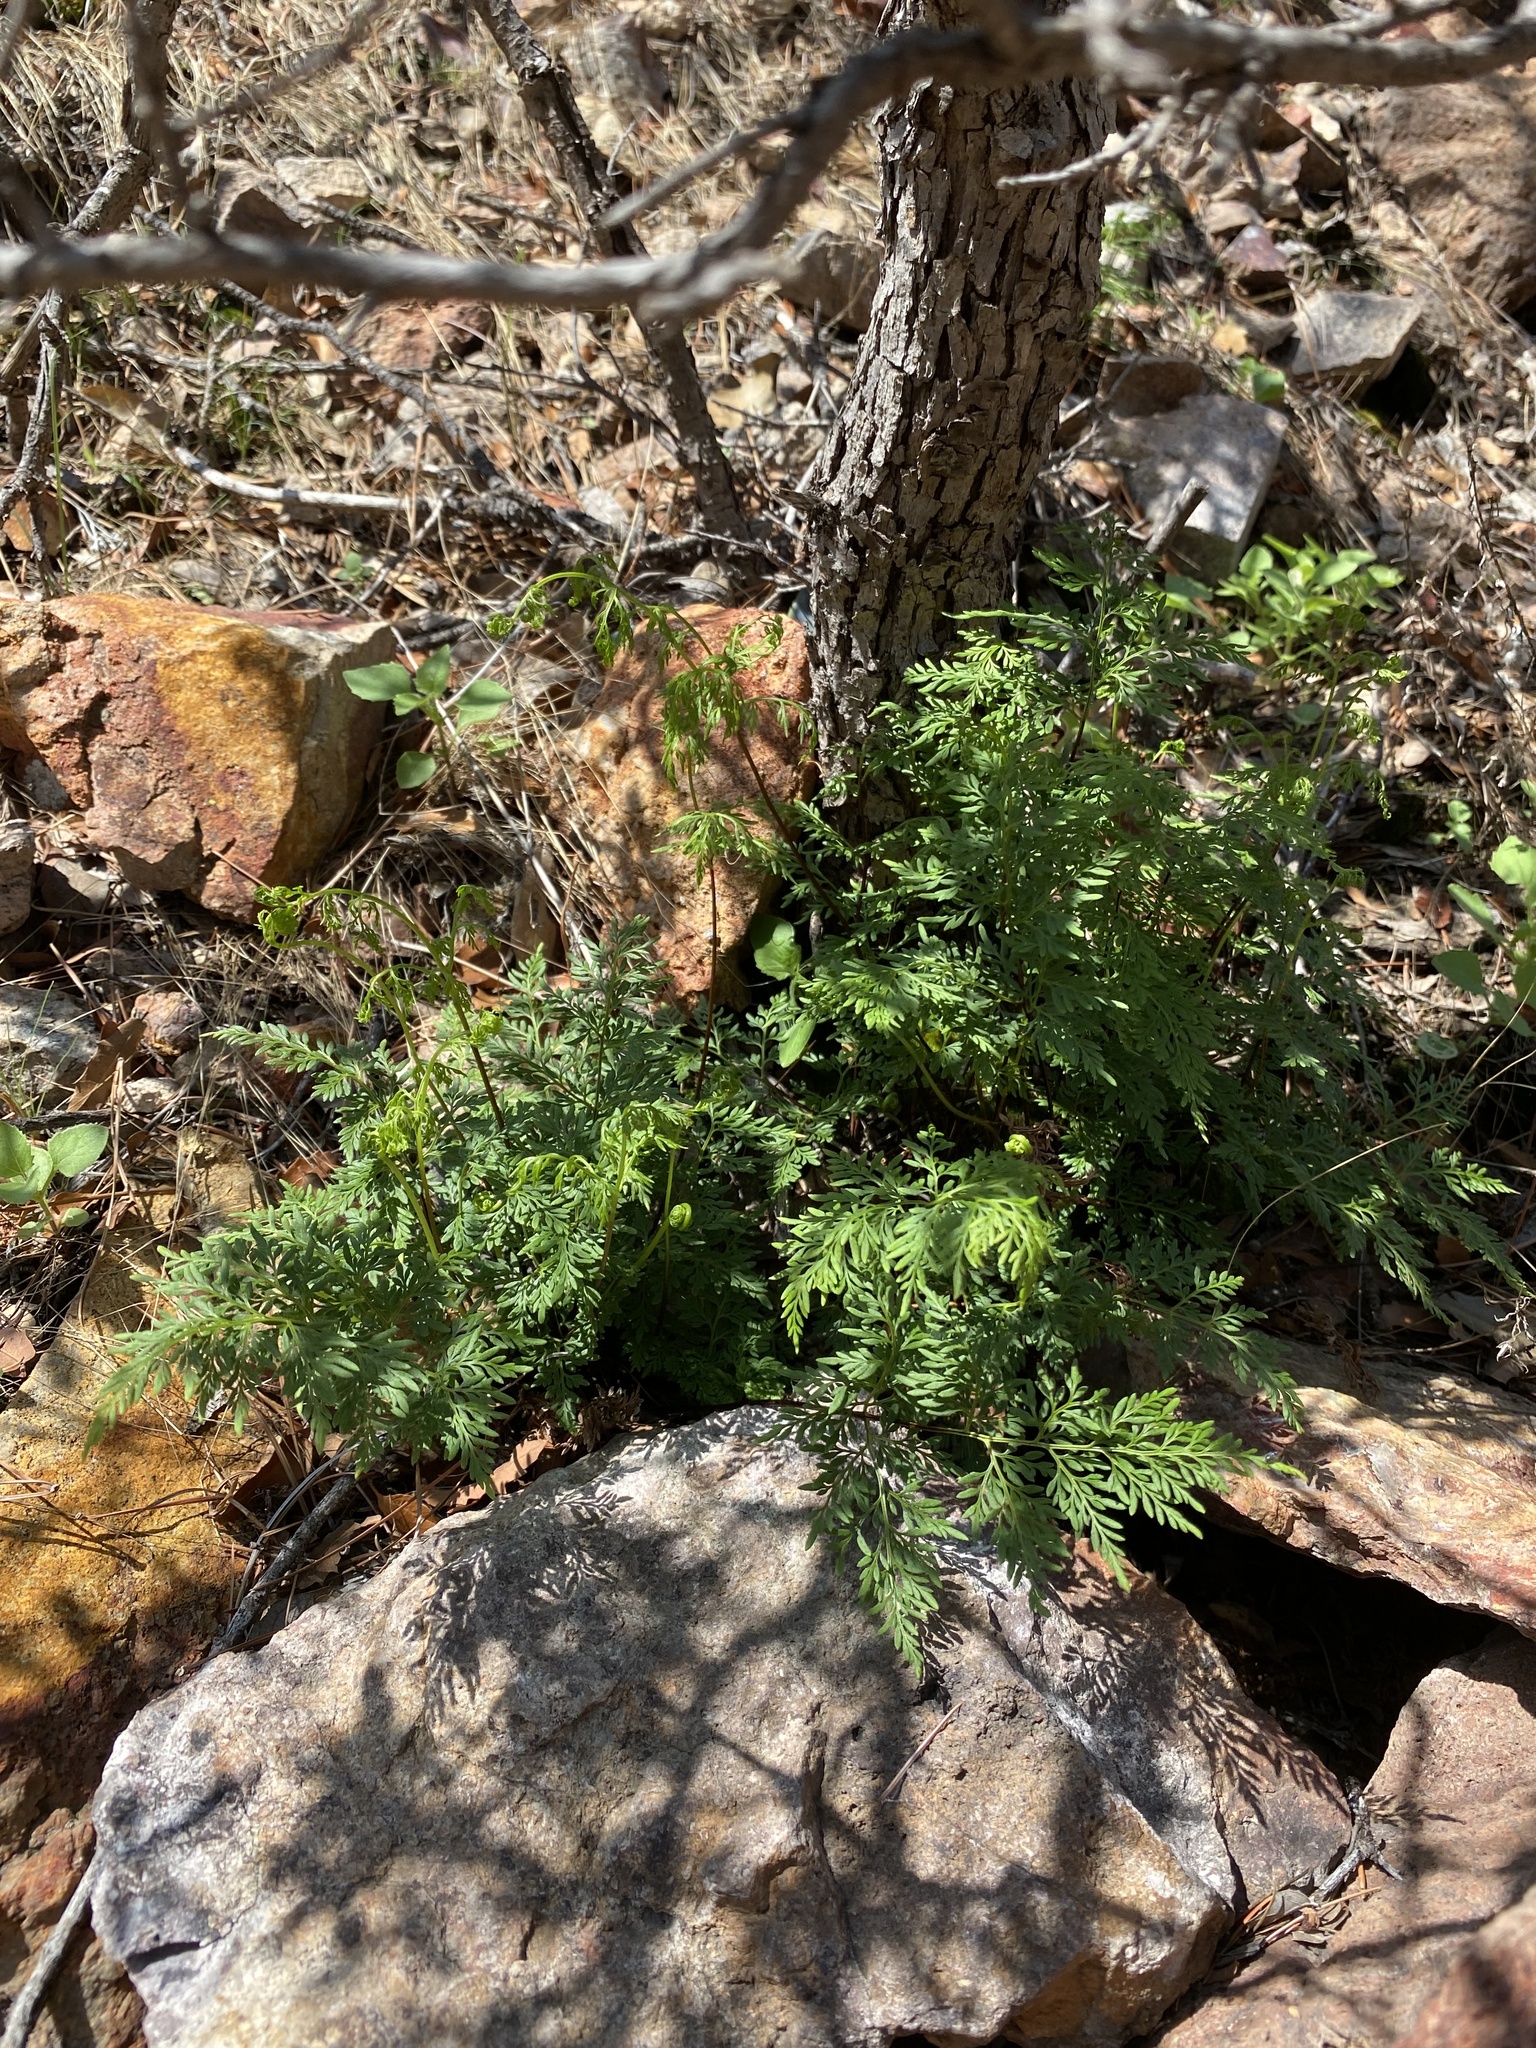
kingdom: Plantae
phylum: Tracheophyta
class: Polypodiopsida
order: Polypodiales
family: Pteridaceae
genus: Gaga
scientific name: Gaga arizonica
